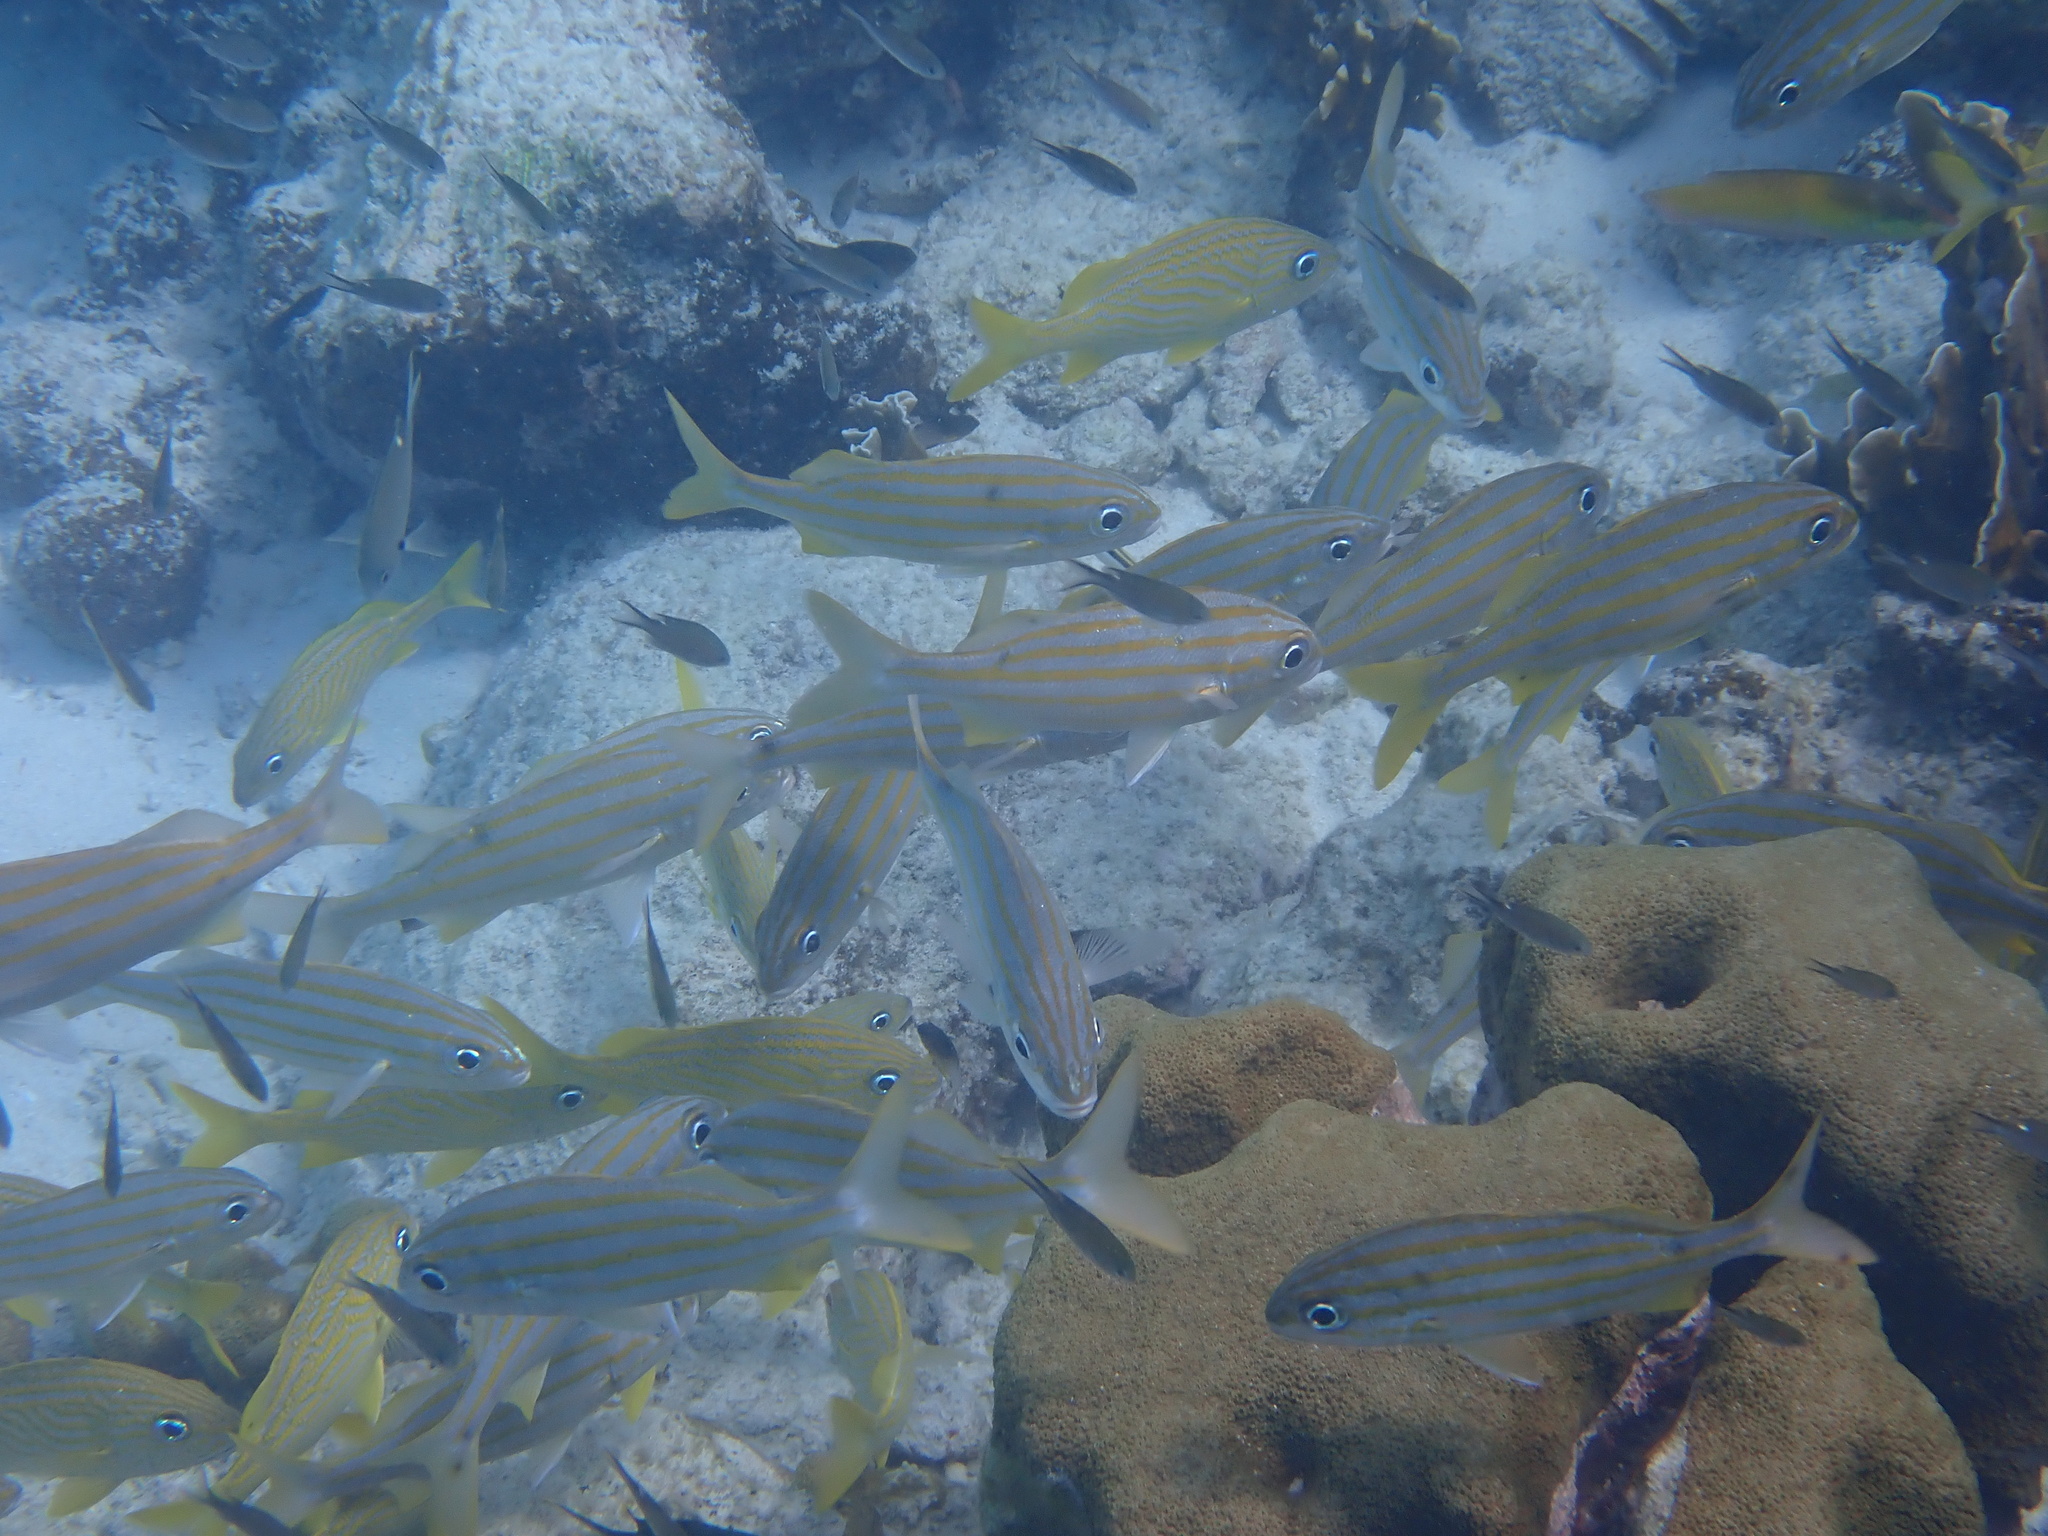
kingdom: Animalia
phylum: Chordata
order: Perciformes
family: Haemulidae
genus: Haemulon
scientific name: Haemulon chrysargyreum
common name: Smallmouth grunt
